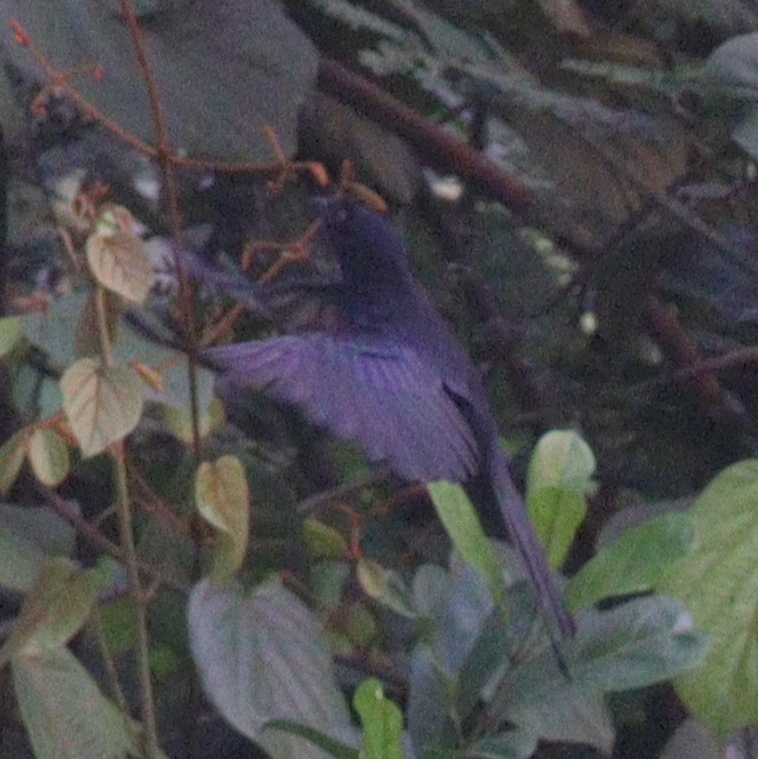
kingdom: Animalia
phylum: Chordata
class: Aves
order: Passeriformes
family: Dicruridae
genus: Dicrurus
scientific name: Dicrurus modestus
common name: Velvet-mantled drongo
